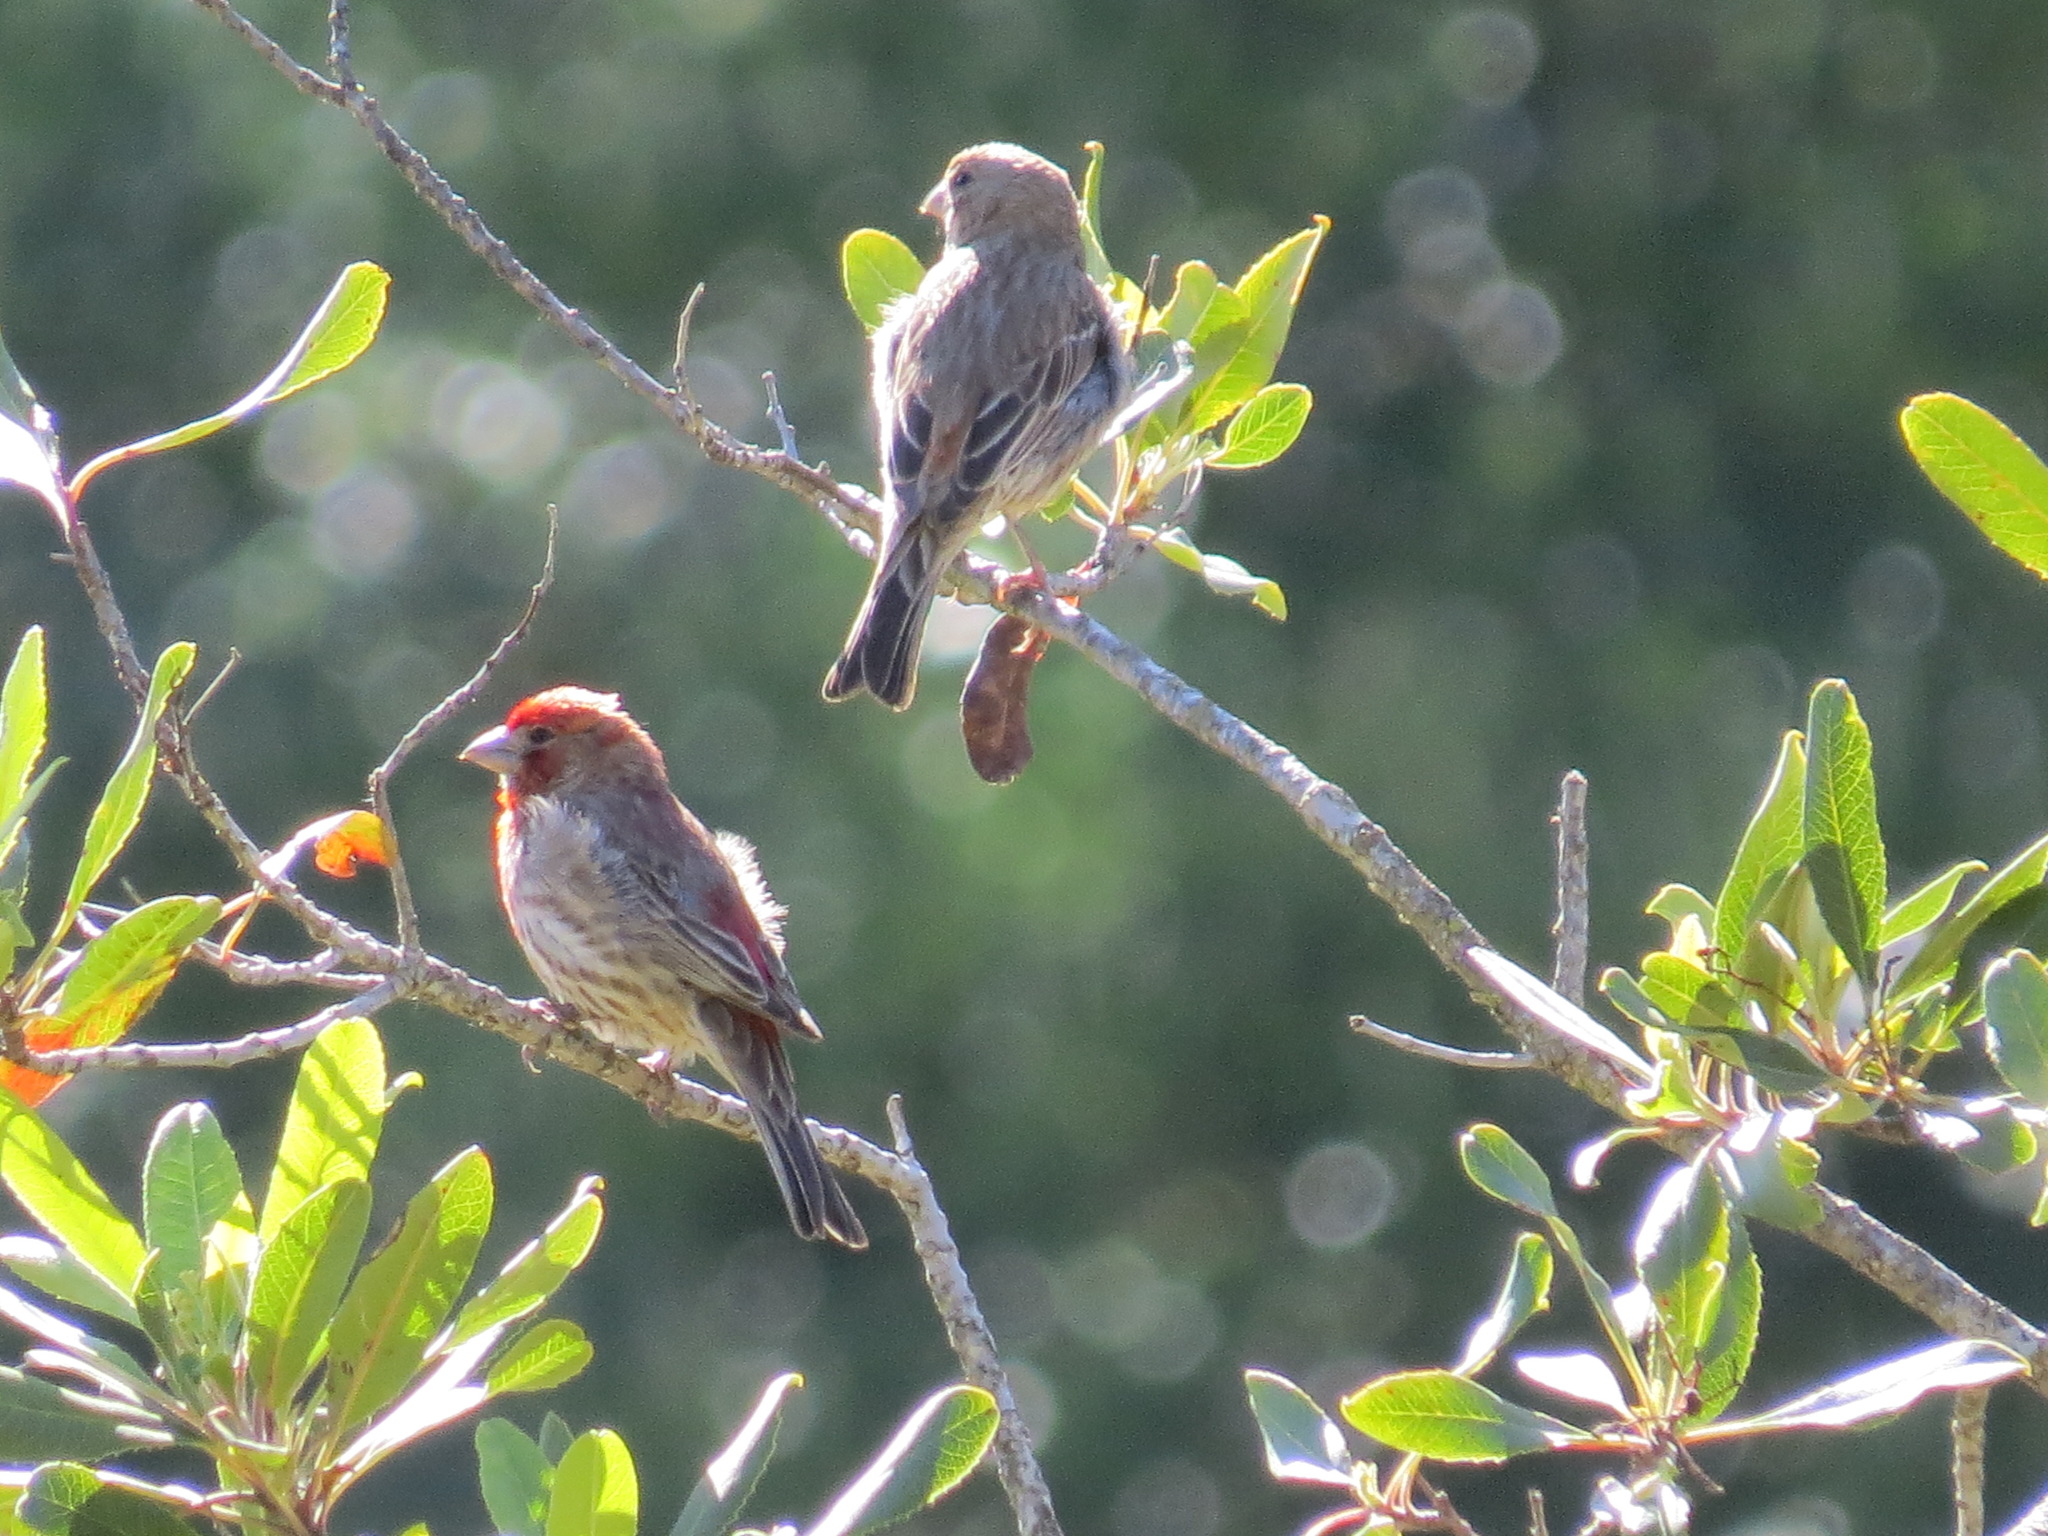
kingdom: Animalia
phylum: Chordata
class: Aves
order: Passeriformes
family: Fringillidae
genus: Haemorhous
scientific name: Haemorhous mexicanus
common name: House finch
